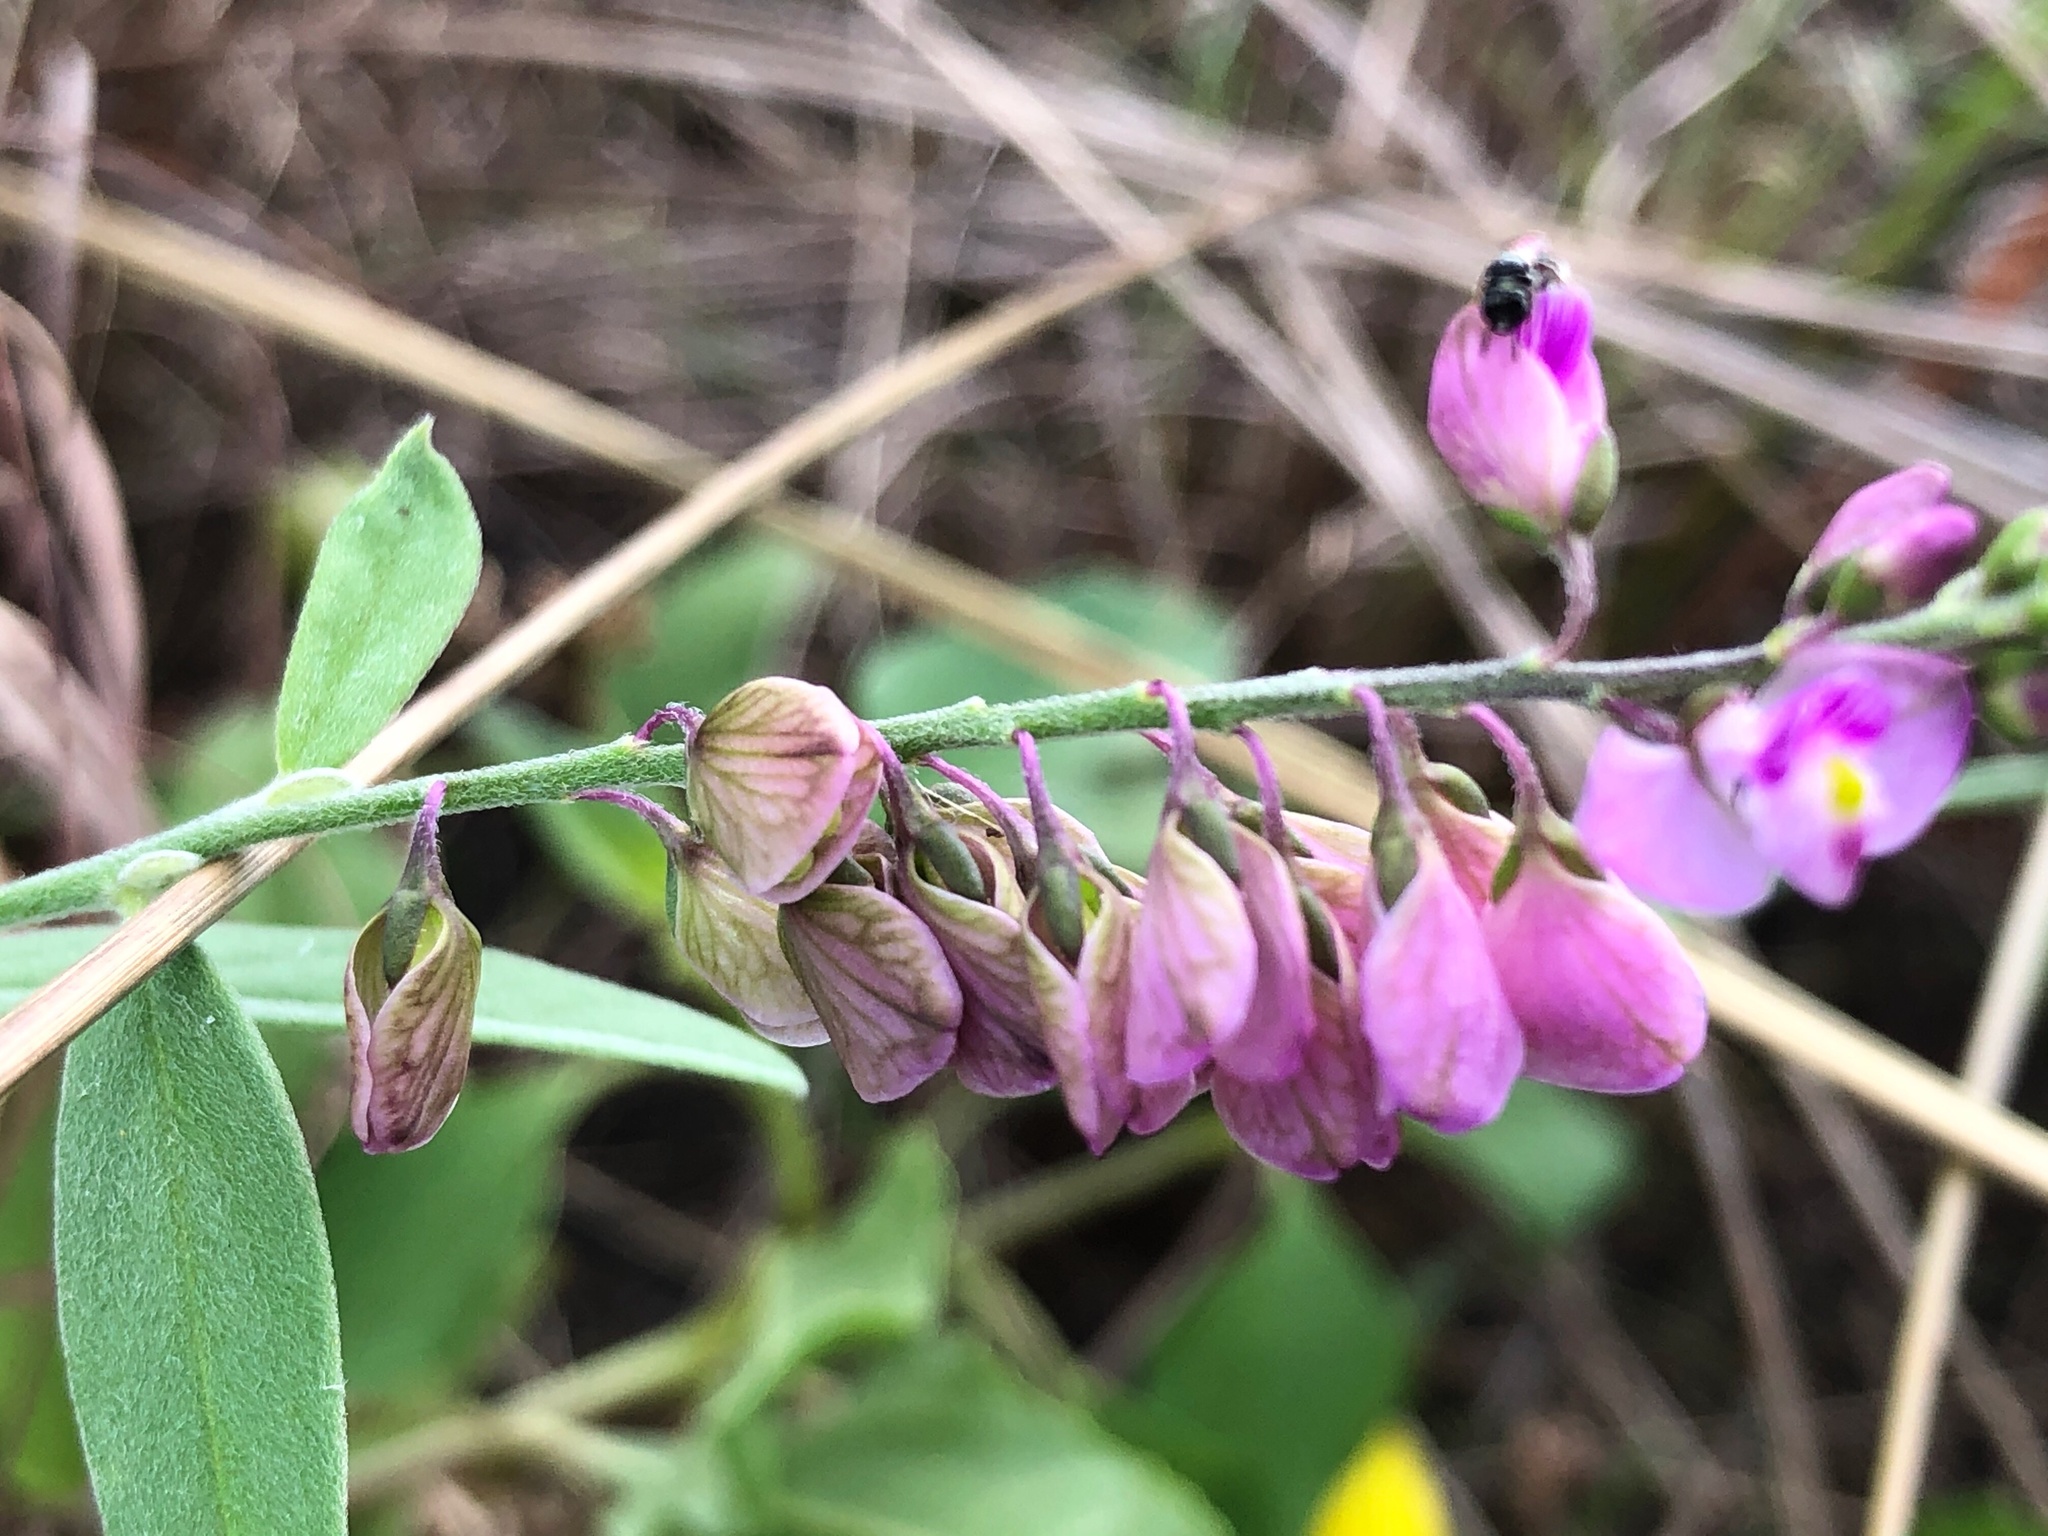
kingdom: Plantae
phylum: Tracheophyta
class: Magnoliopsida
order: Fabales
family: Polygalaceae
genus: Asemeia
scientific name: Asemeia grandiflora
